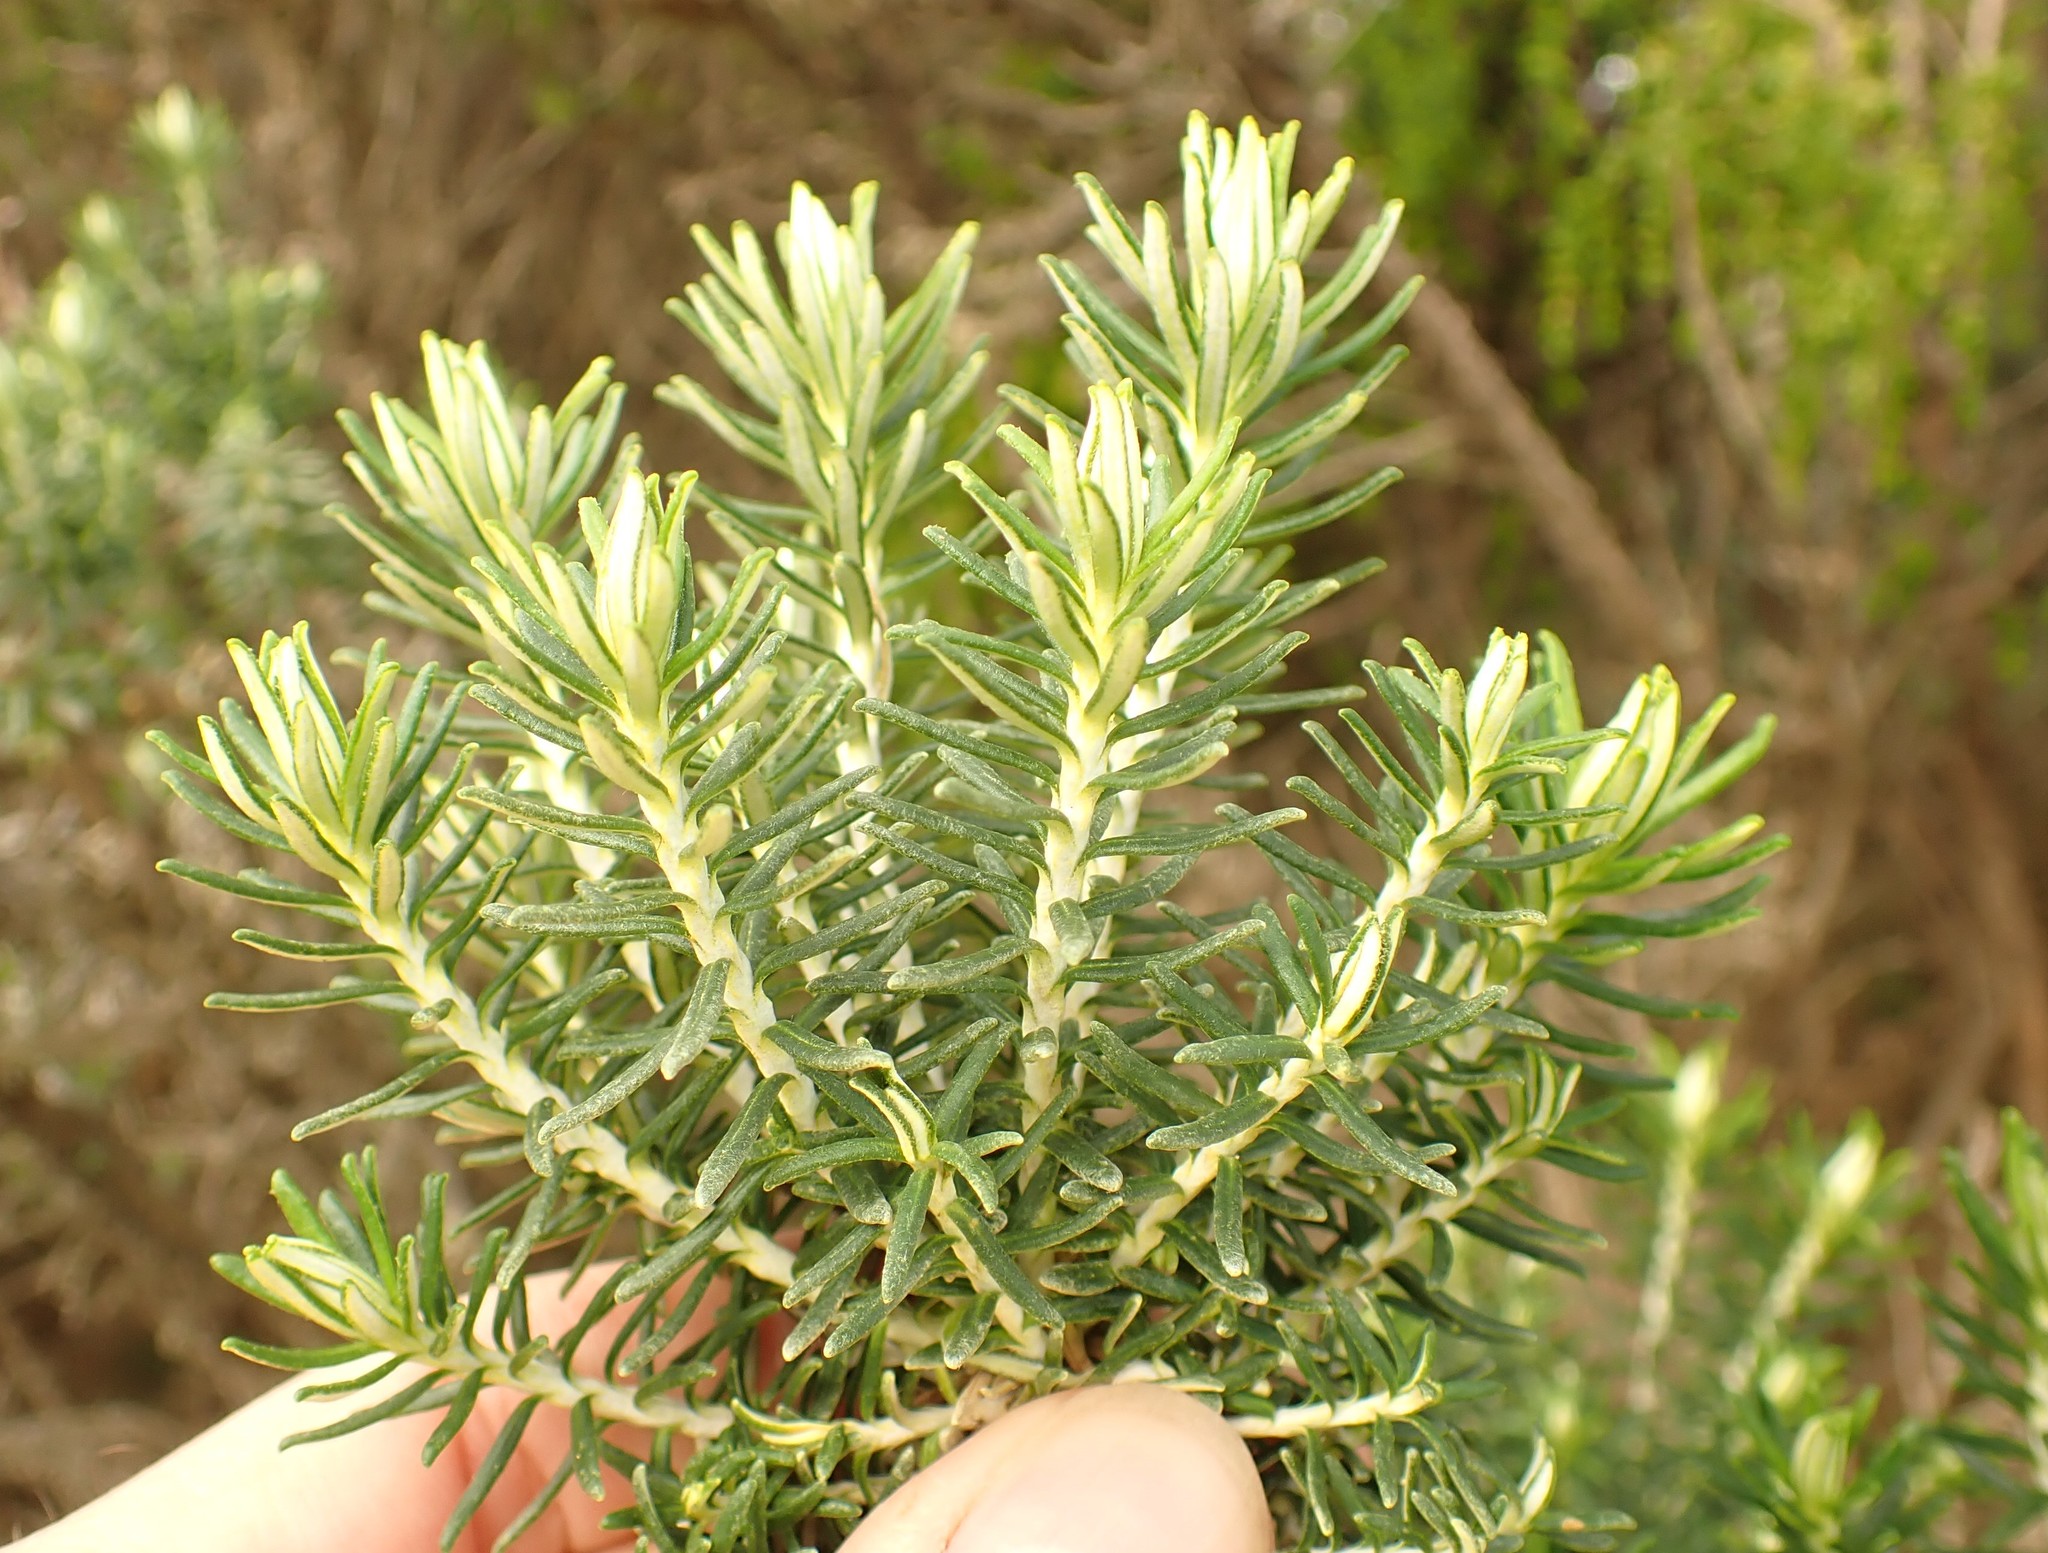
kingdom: Plantae
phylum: Tracheophyta
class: Magnoliopsida
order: Asterales
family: Asteraceae
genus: Ozothamnus
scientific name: Ozothamnus cinereus
